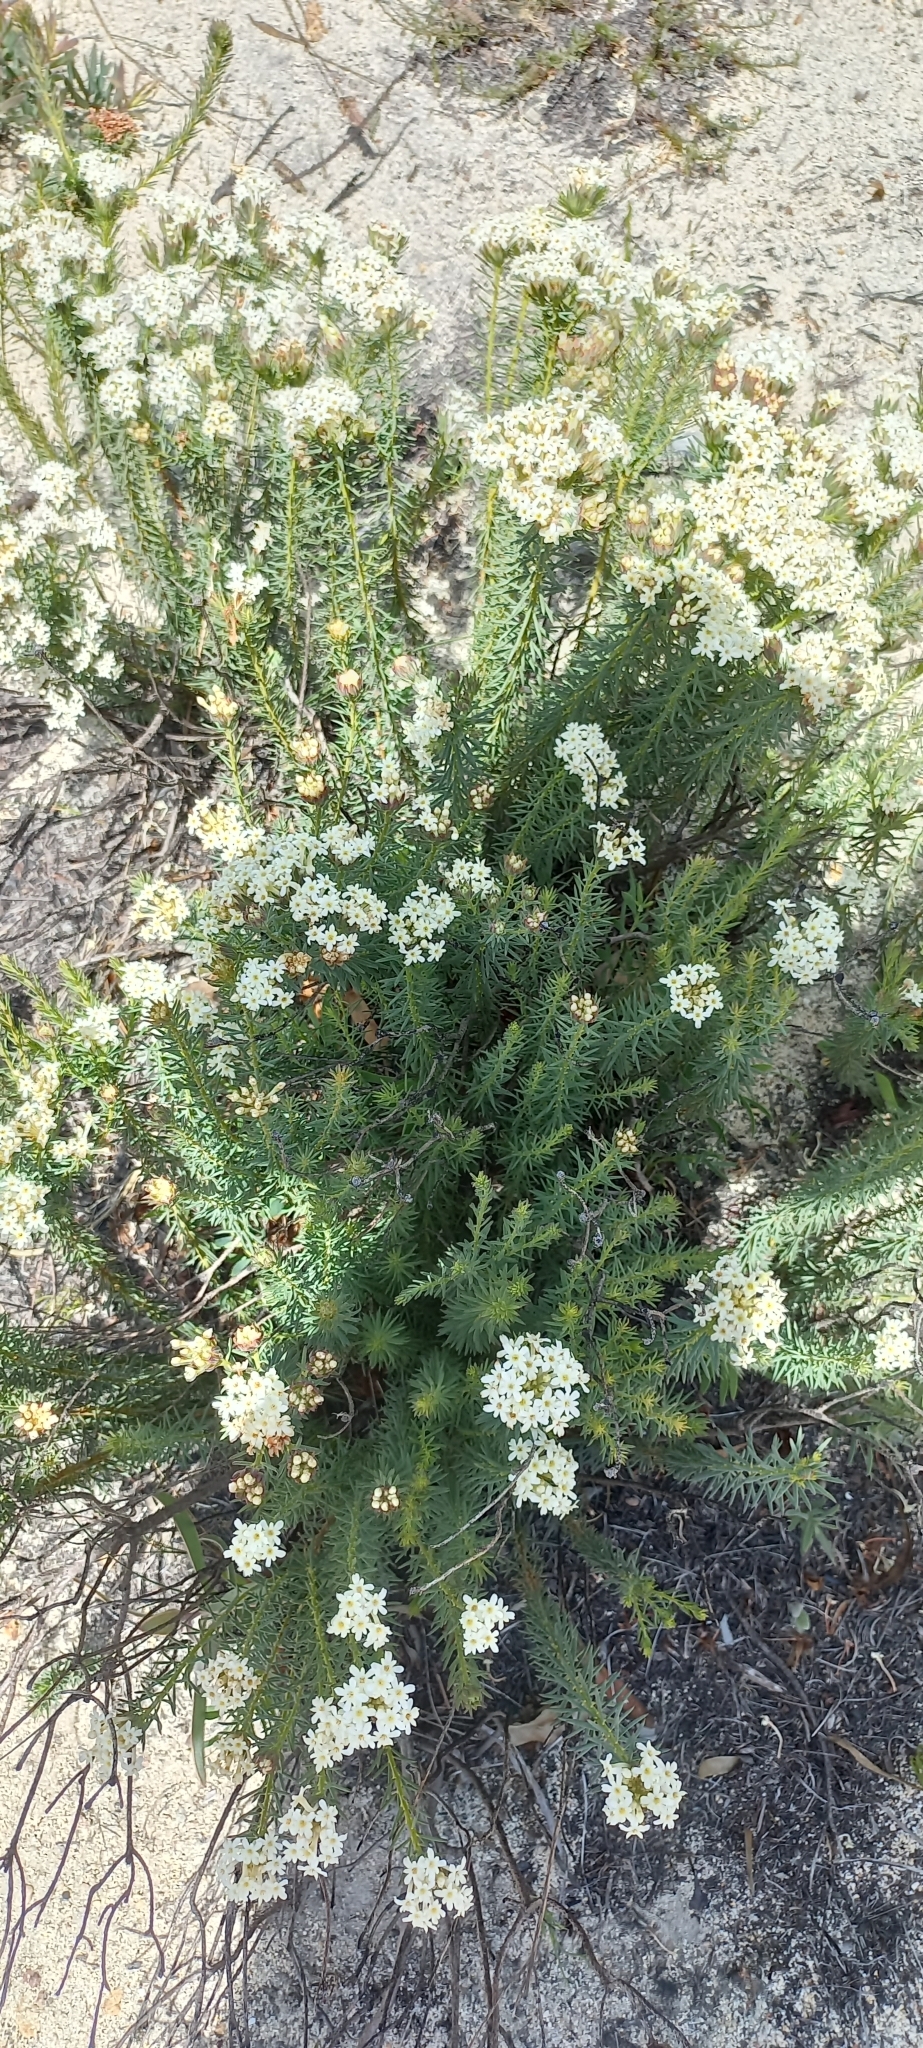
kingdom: Plantae
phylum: Tracheophyta
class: Magnoliopsida
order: Malvales
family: Thymelaeaceae
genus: Gnidia
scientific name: Gnidia pinifolia
